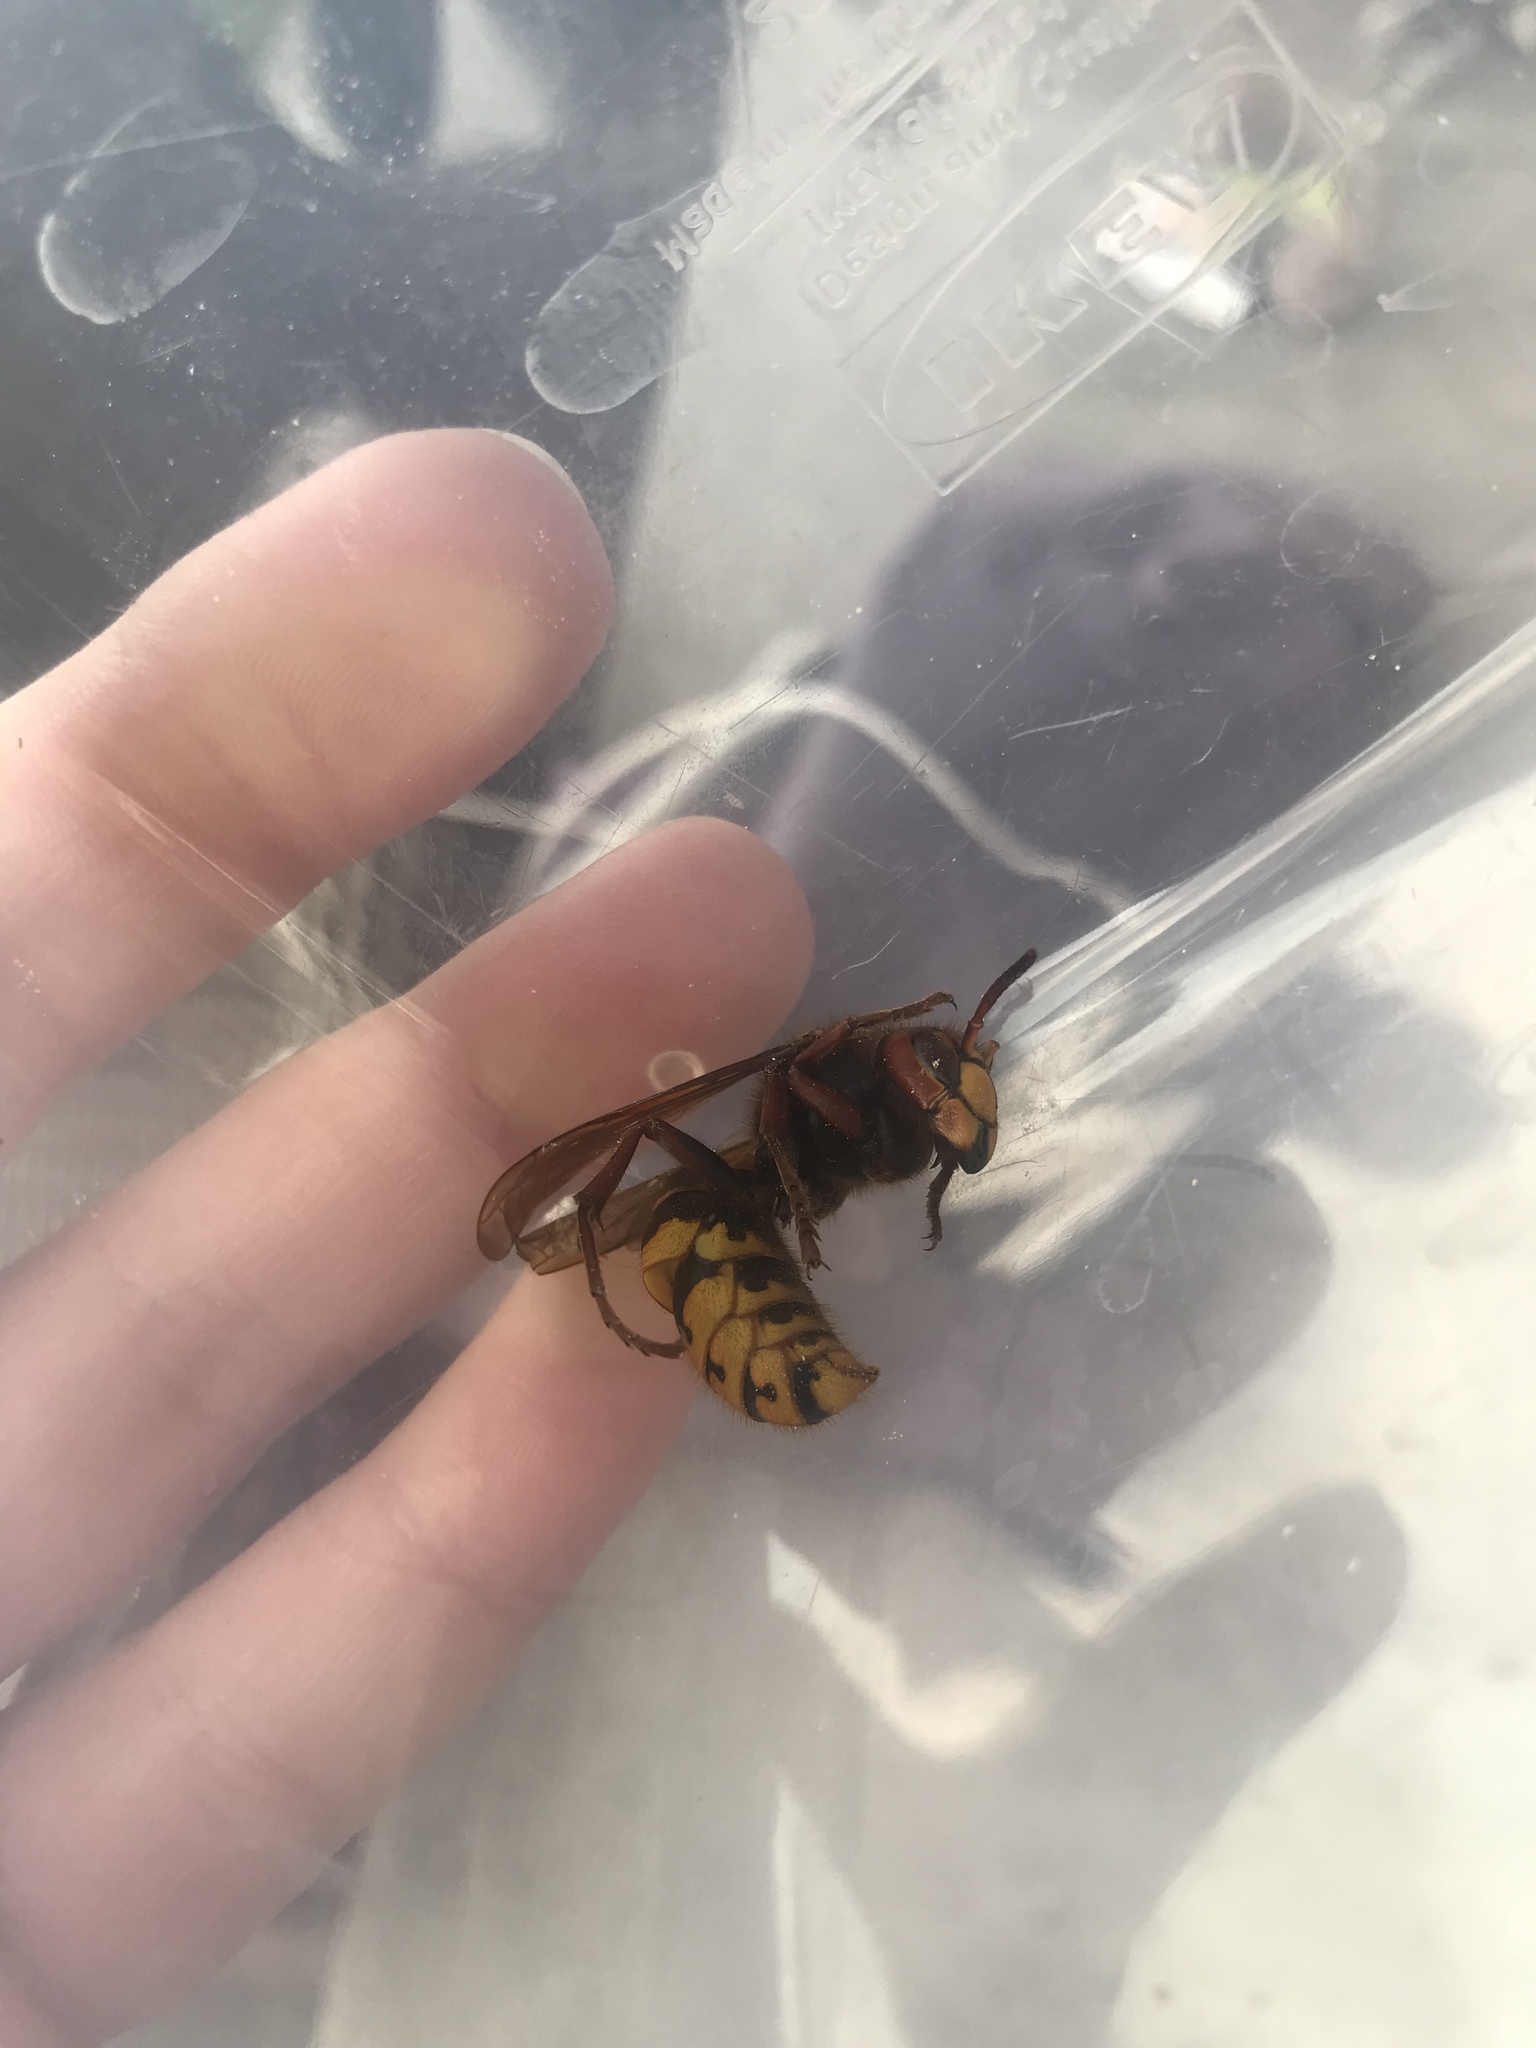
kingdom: Animalia
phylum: Arthropoda
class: Insecta
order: Hymenoptera
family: Vespidae
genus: Vespa
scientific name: Vespa crabro
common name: Hornet
